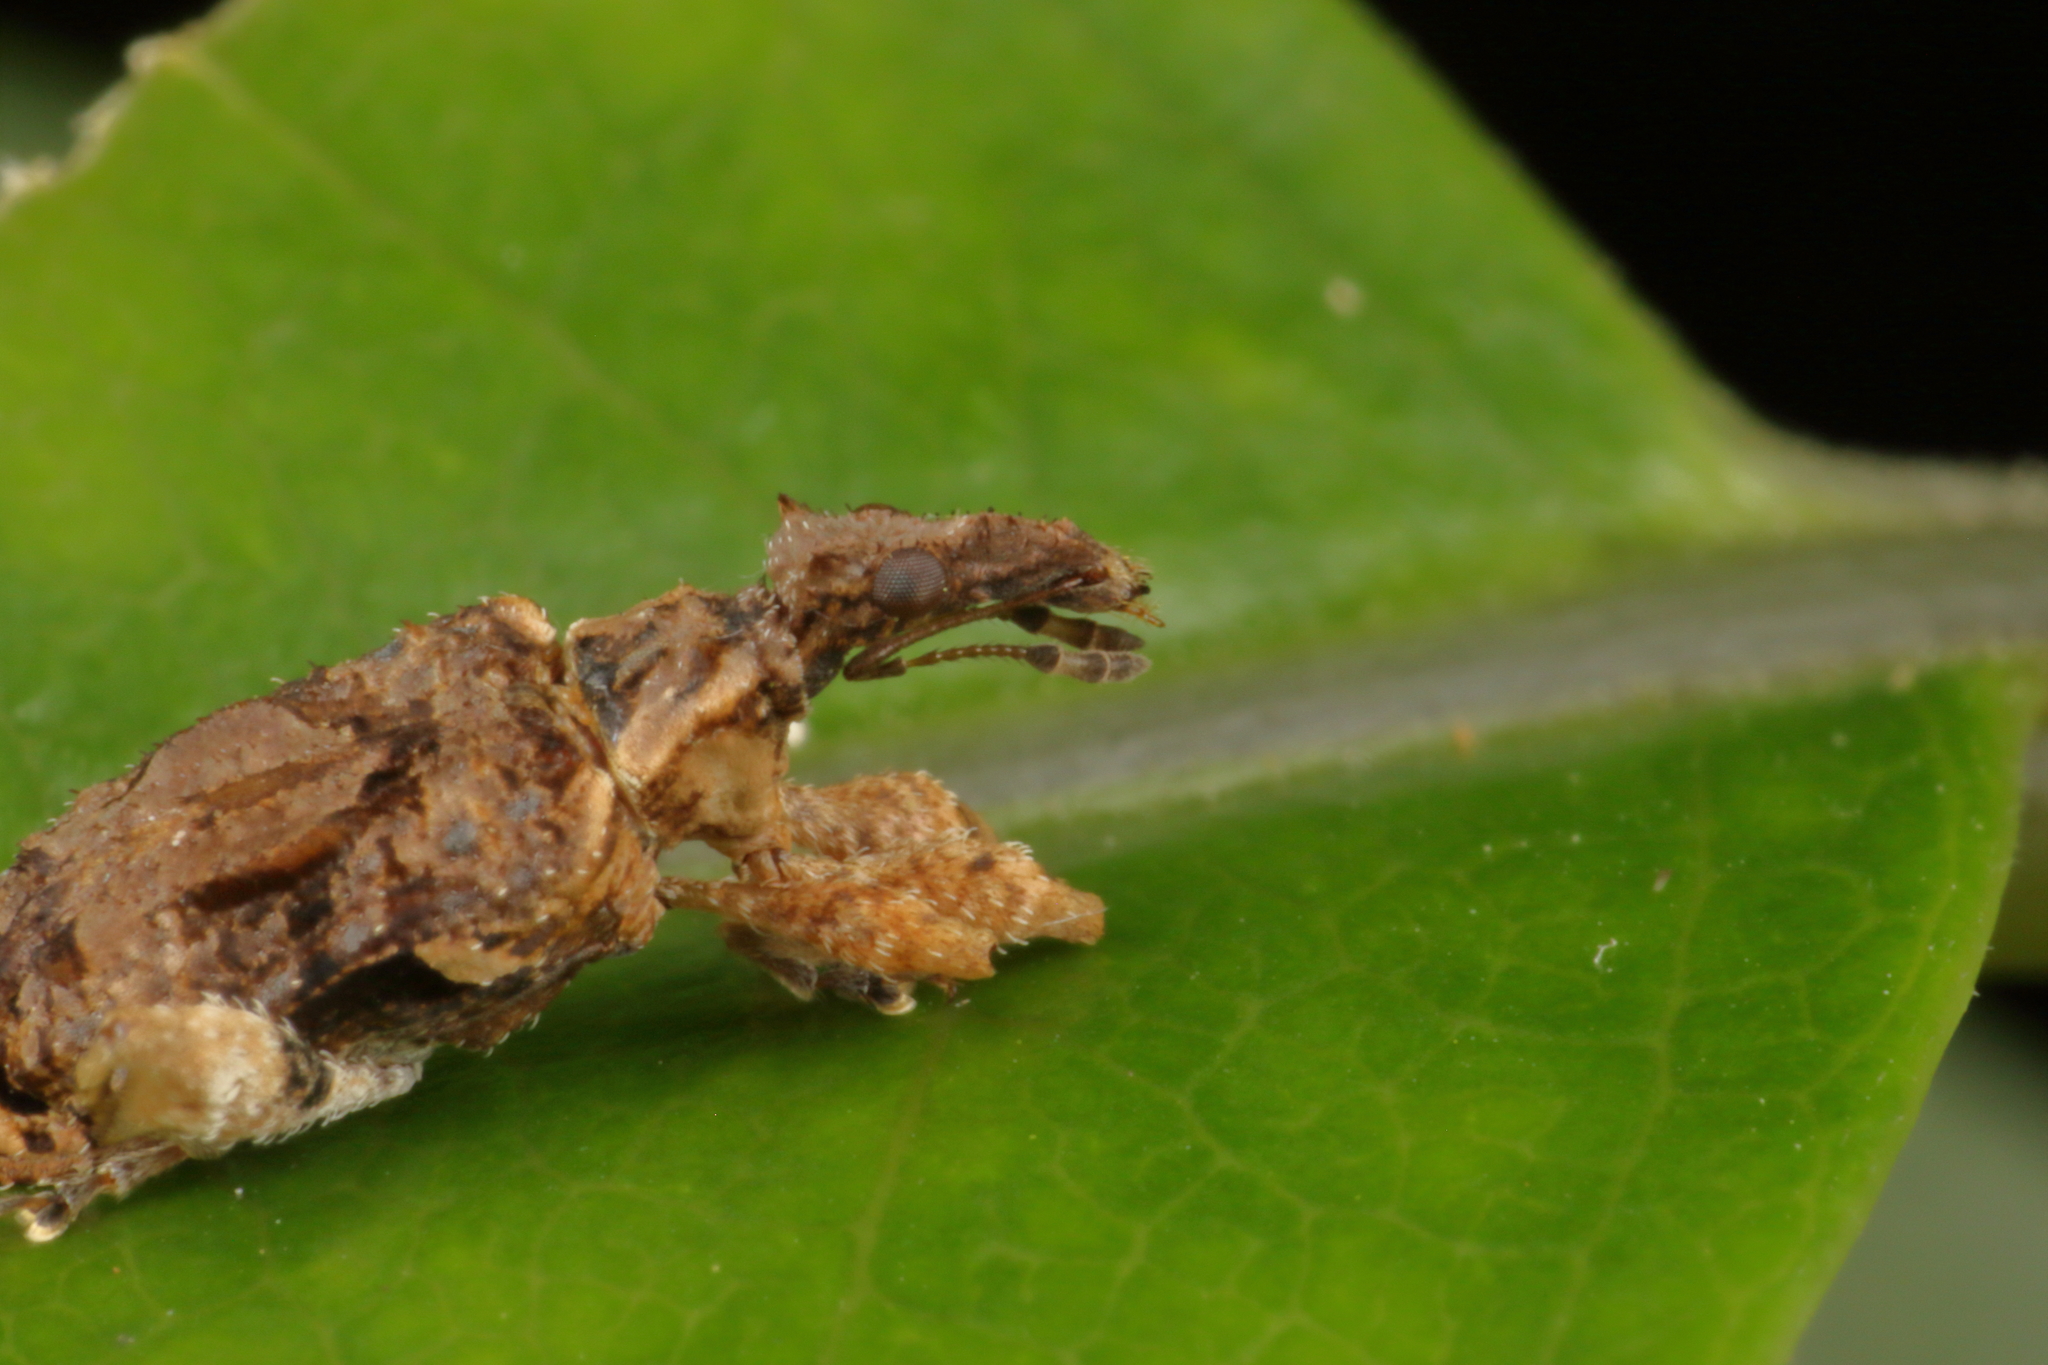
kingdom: Animalia
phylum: Arthropoda
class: Insecta
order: Coleoptera
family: Curculionidae
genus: Stephanorhynchus
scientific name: Stephanorhynchus curvipes
